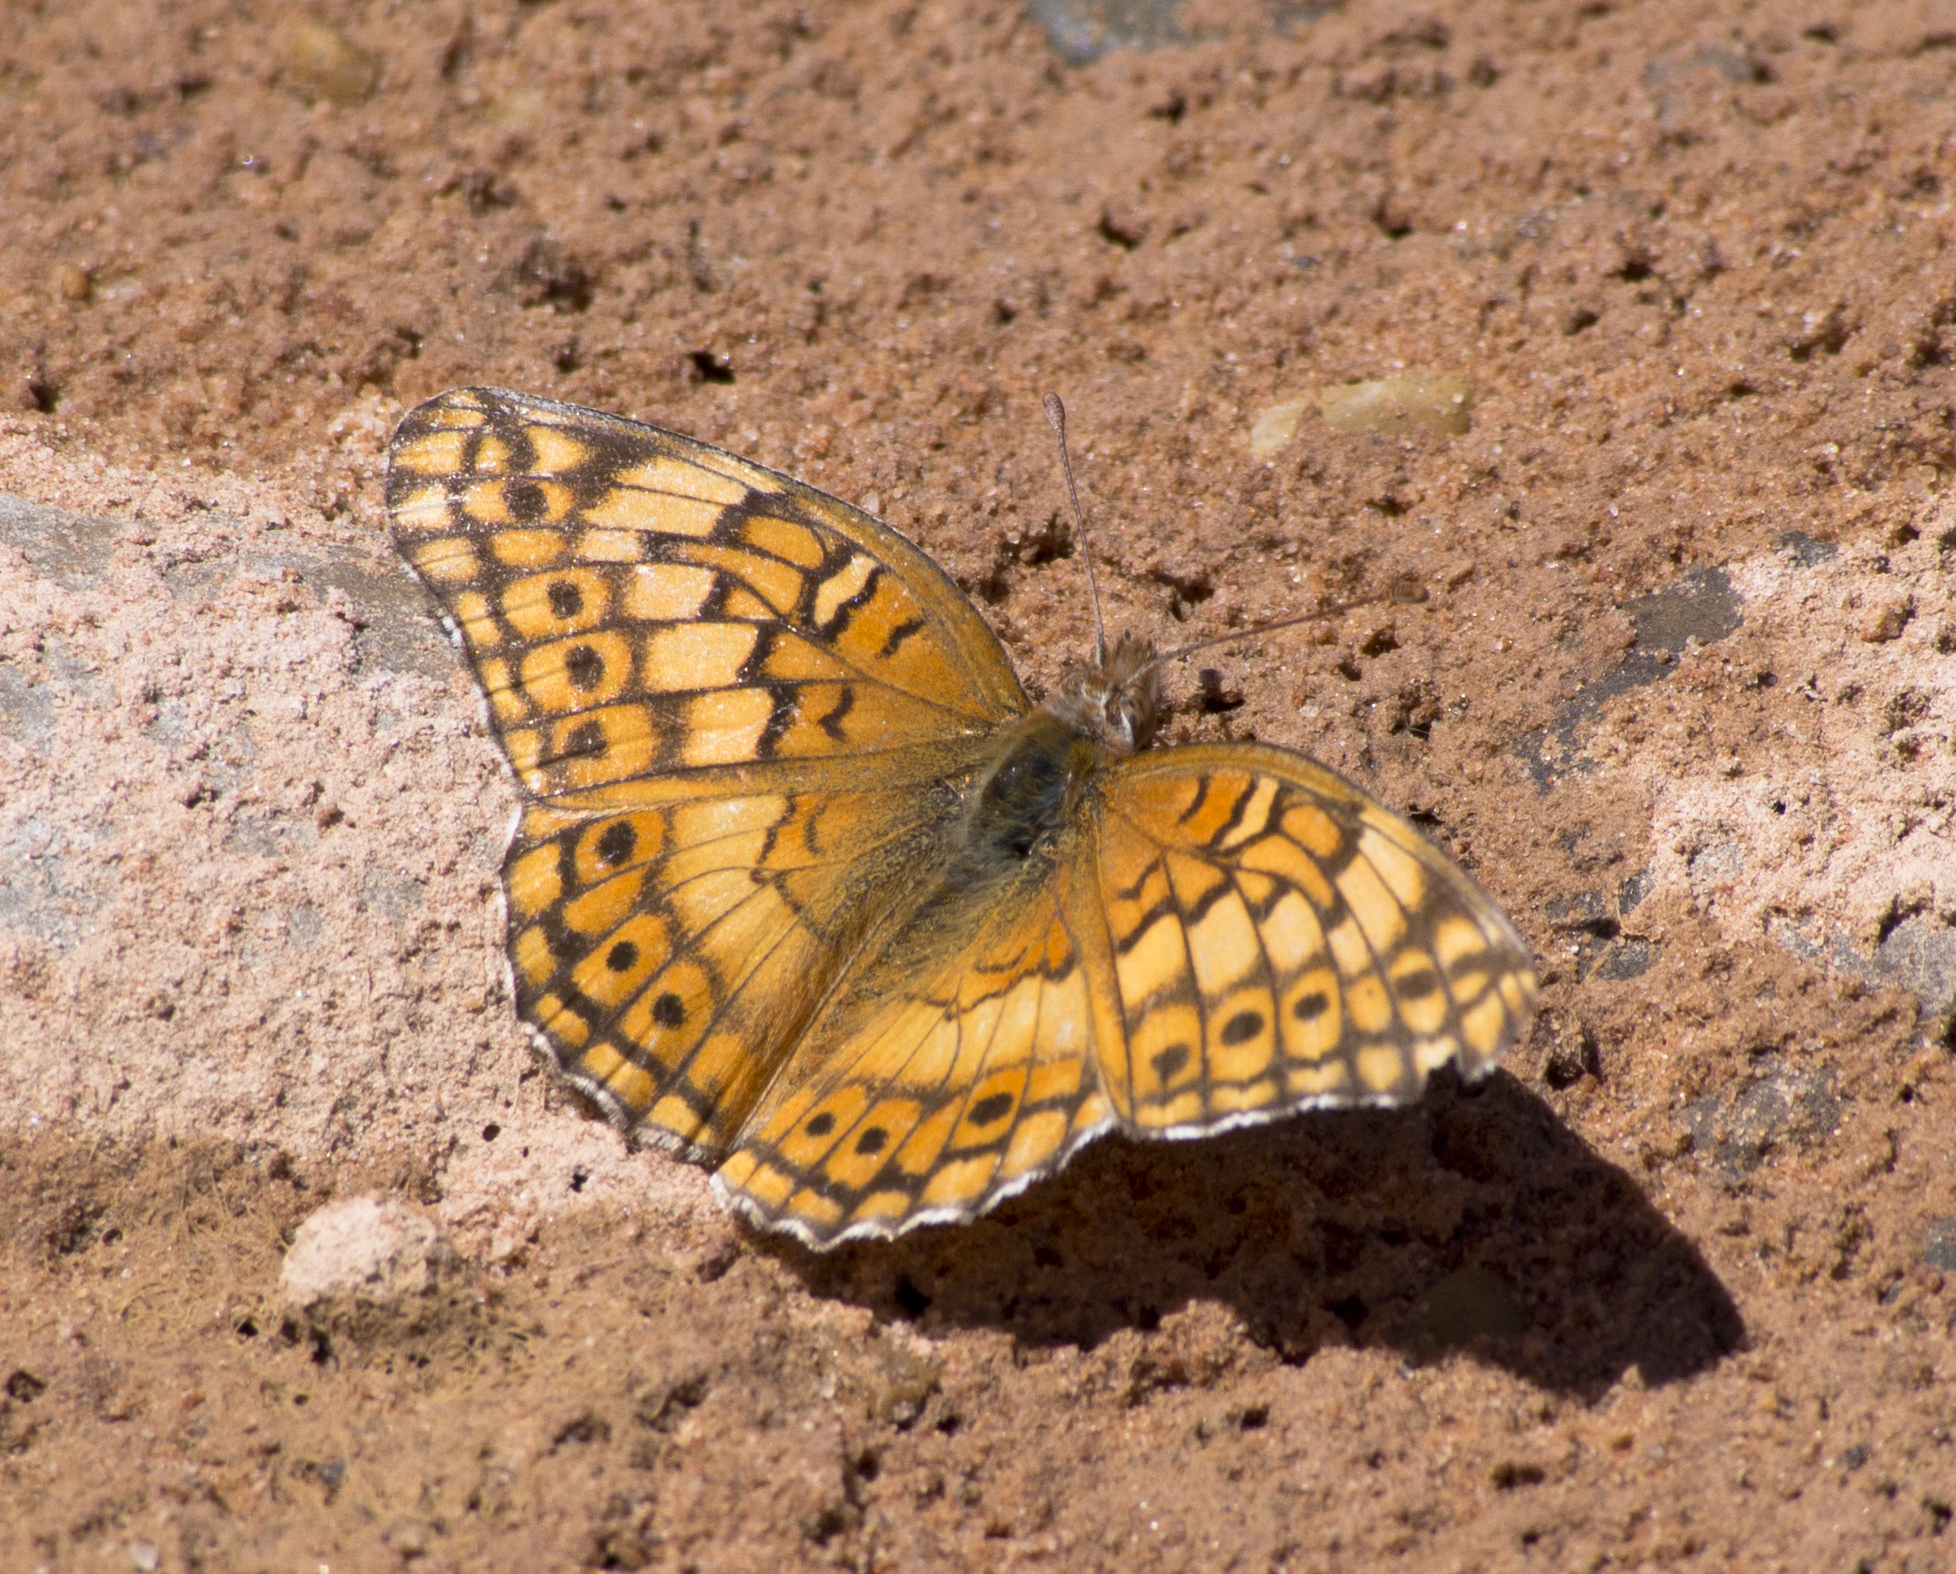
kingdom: Animalia
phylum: Arthropoda
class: Insecta
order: Lepidoptera
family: Nymphalidae
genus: Euptoieta
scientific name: Euptoieta claudia
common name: Variegated fritillary
